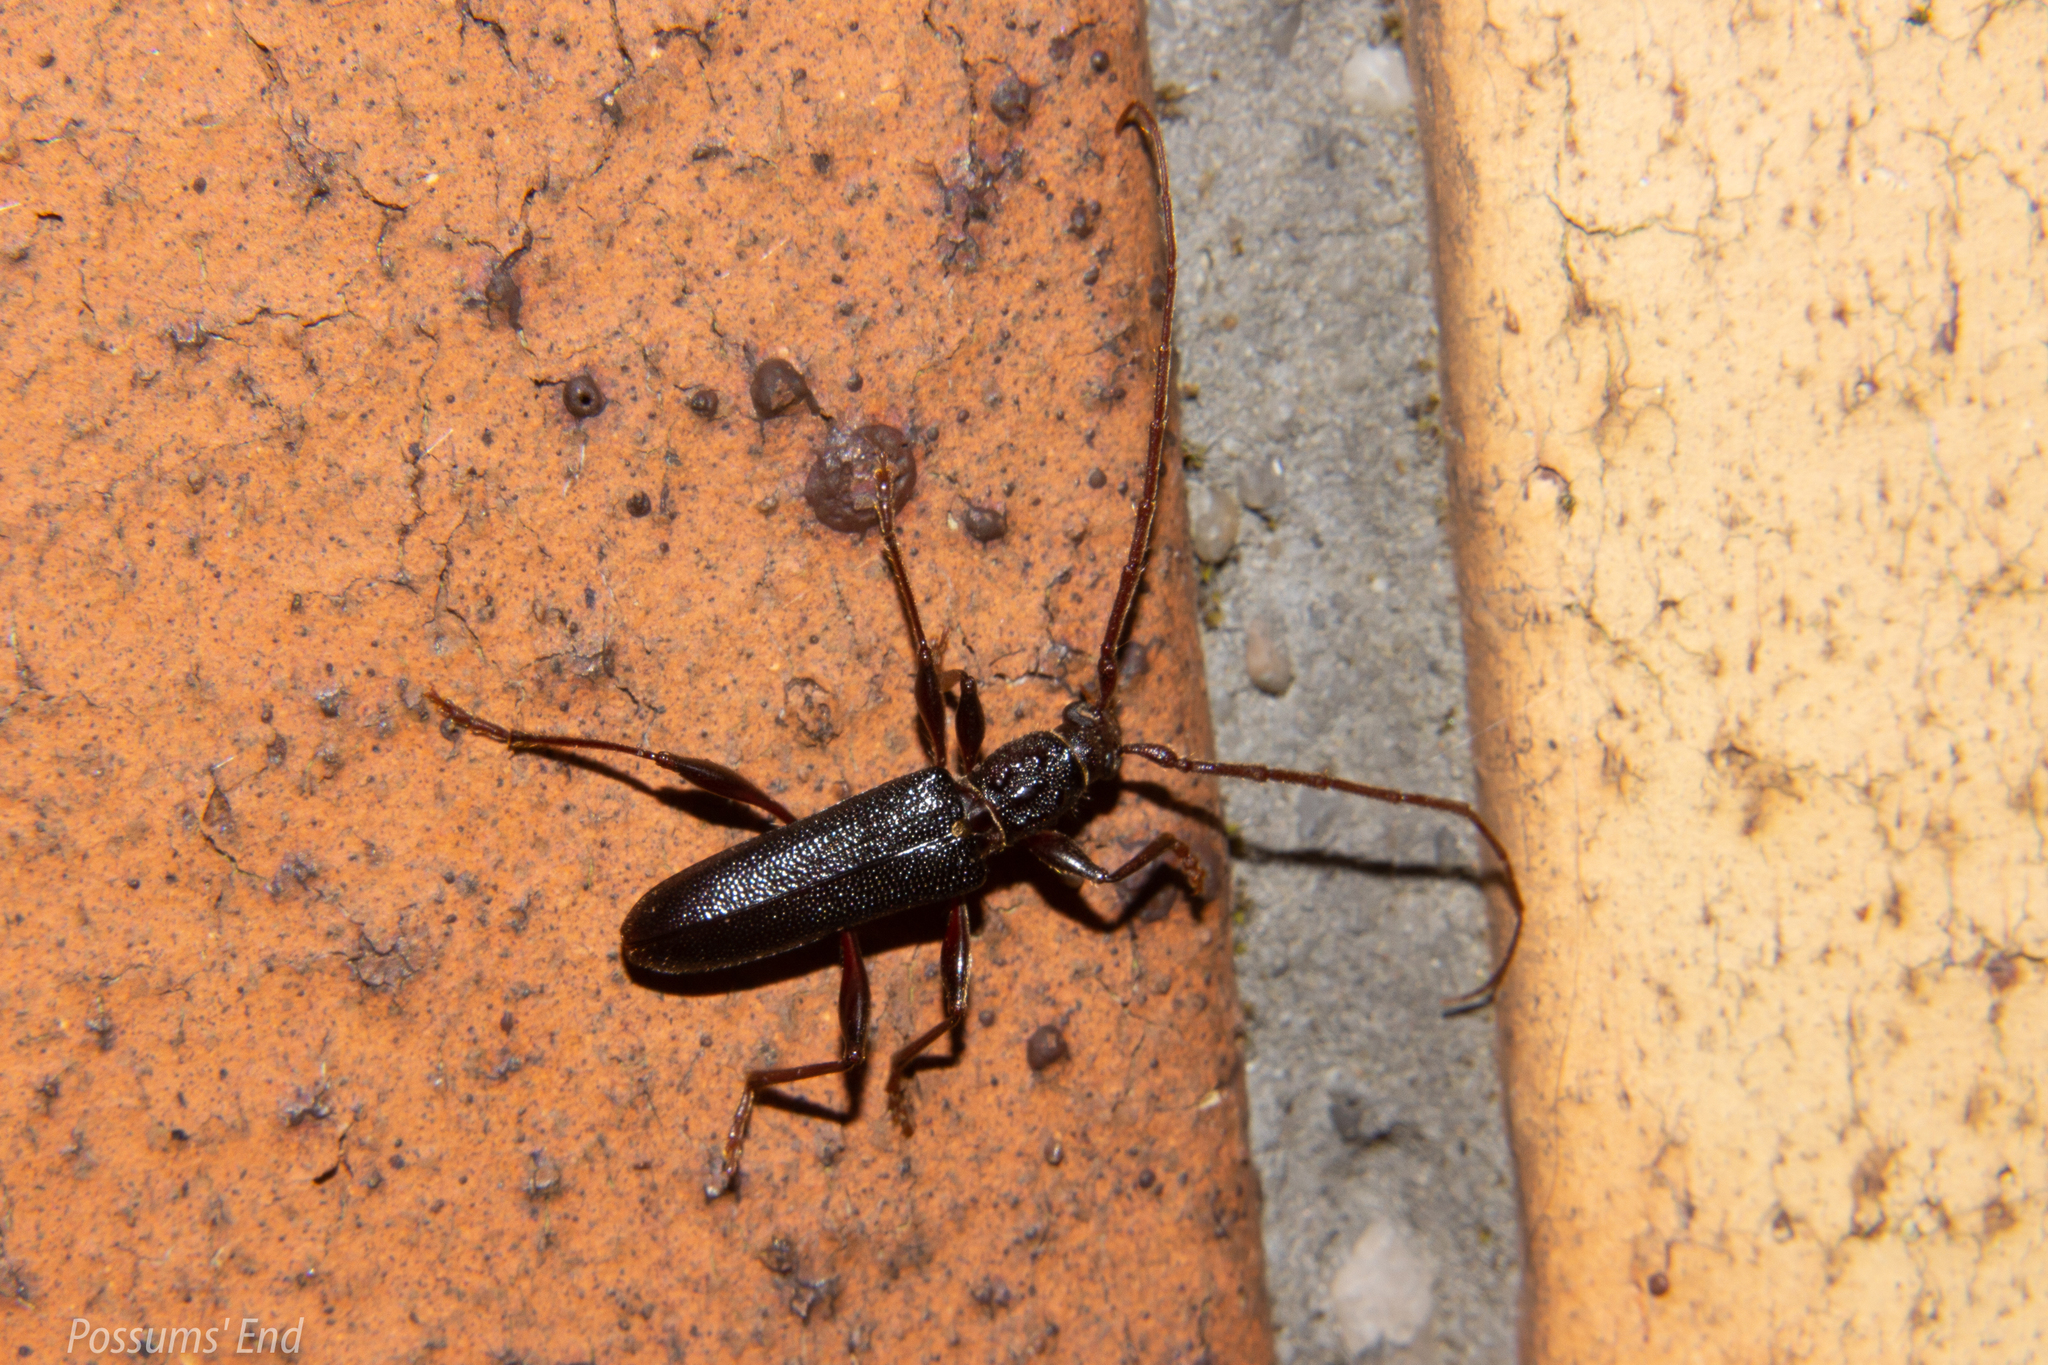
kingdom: Animalia
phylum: Arthropoda
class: Insecta
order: Coleoptera
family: Cerambycidae
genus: Callidiopis
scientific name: Callidiopis scutellaris
